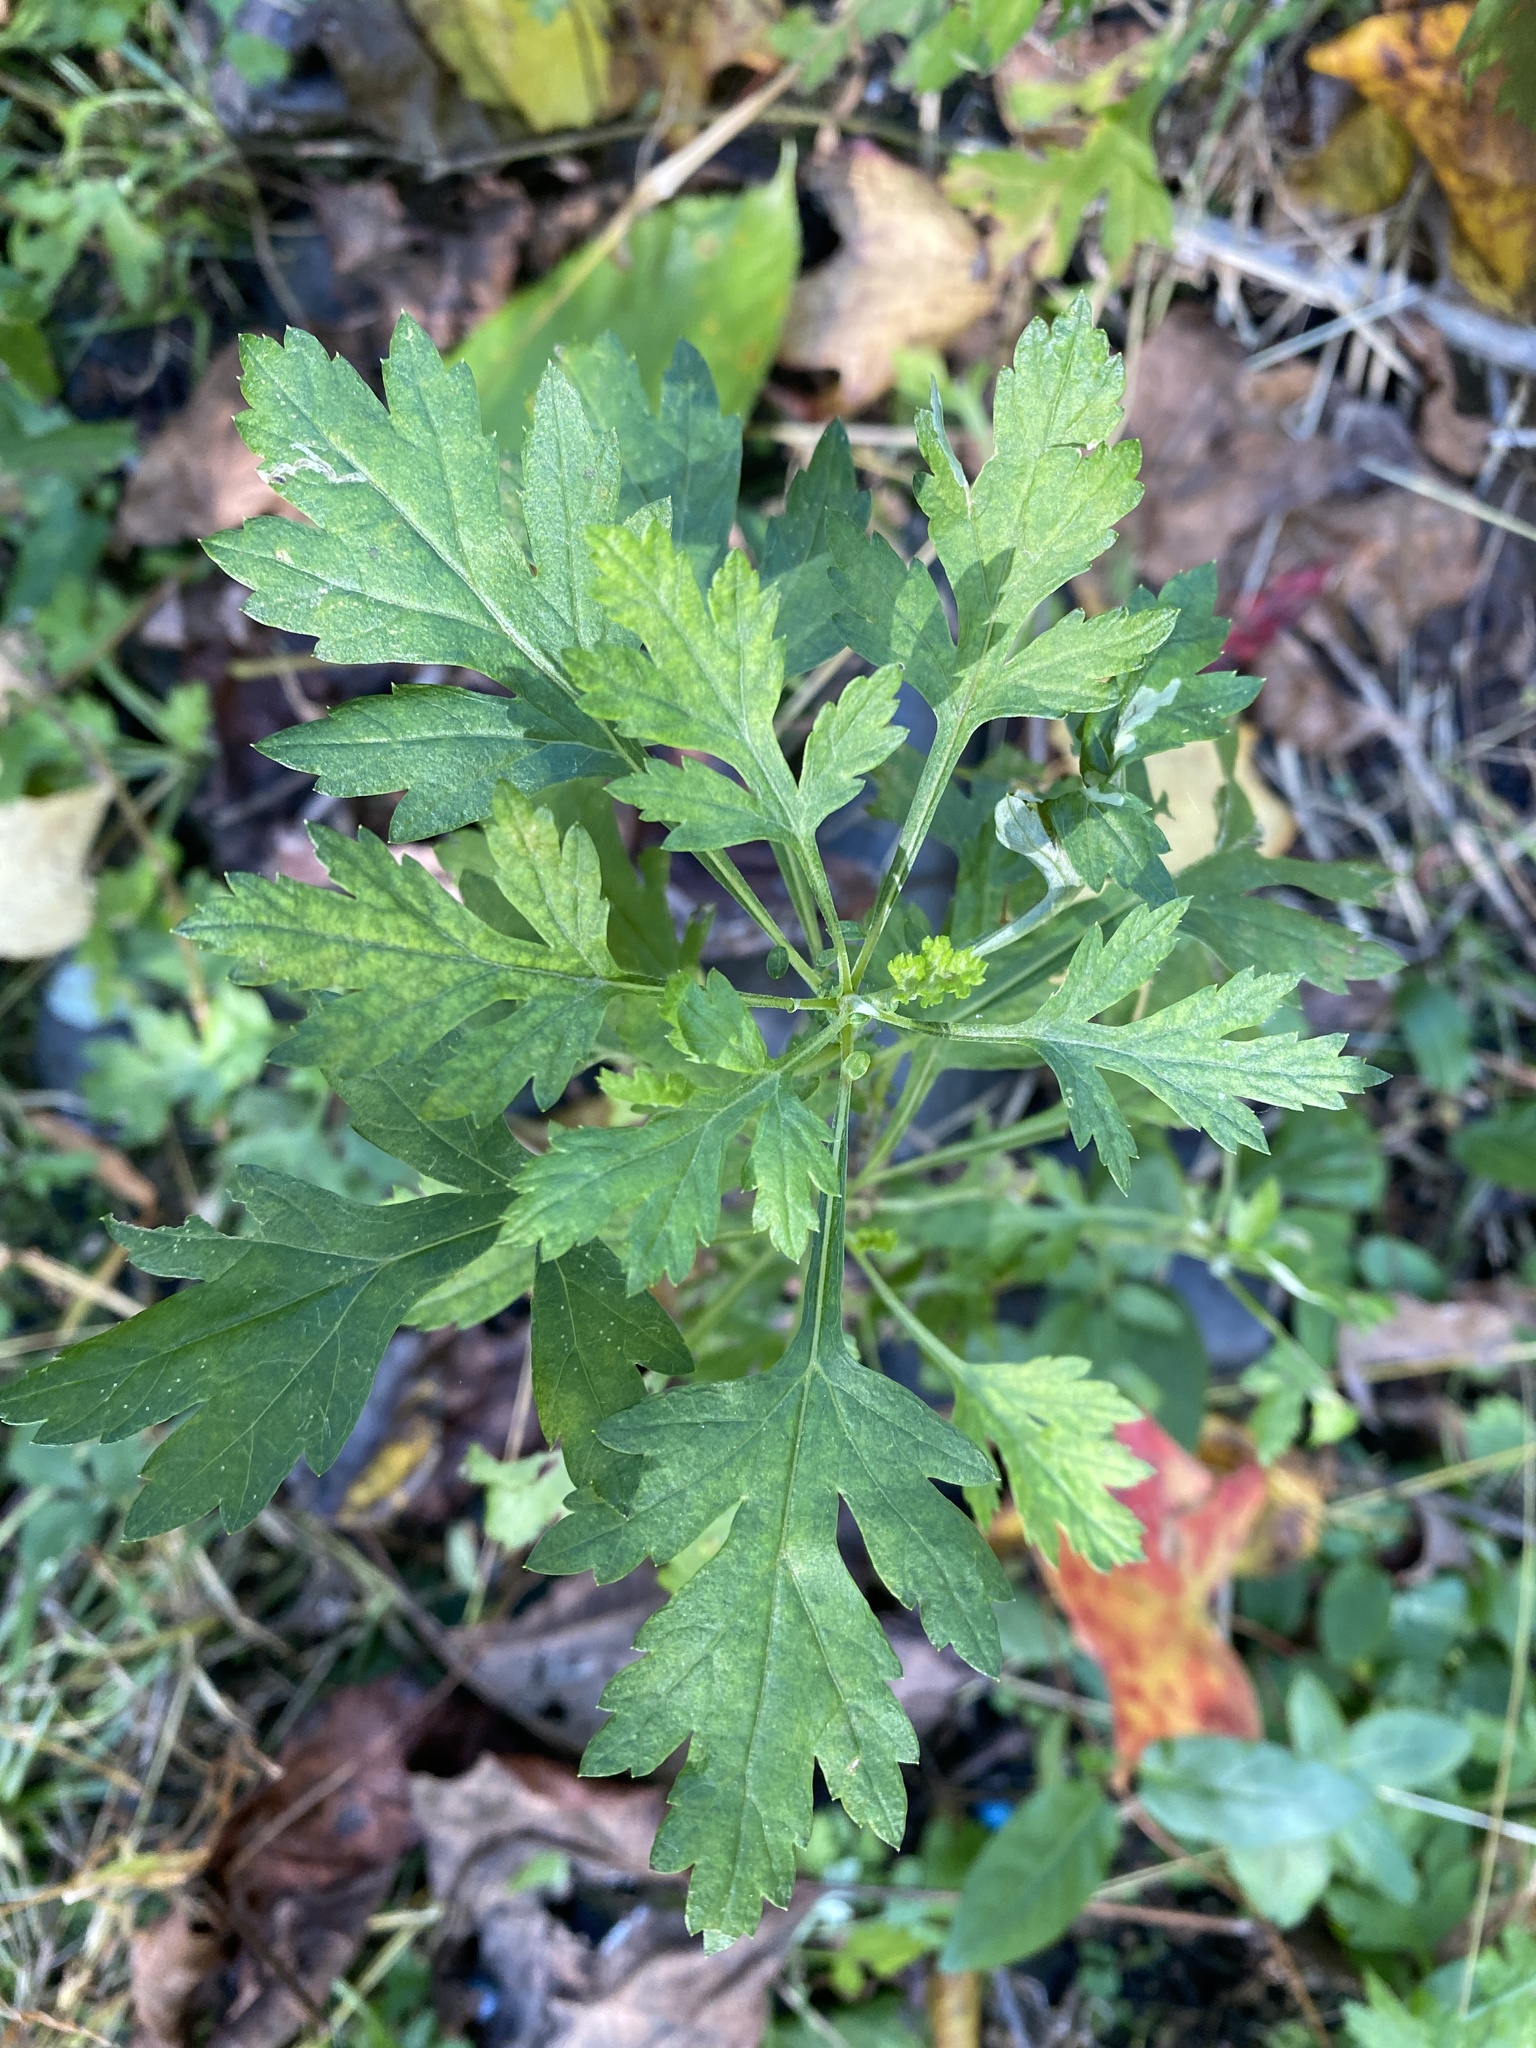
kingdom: Plantae
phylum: Tracheophyta
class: Magnoliopsida
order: Asterales
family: Asteraceae
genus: Artemisia
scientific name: Artemisia vulgaris
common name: Mugwort
